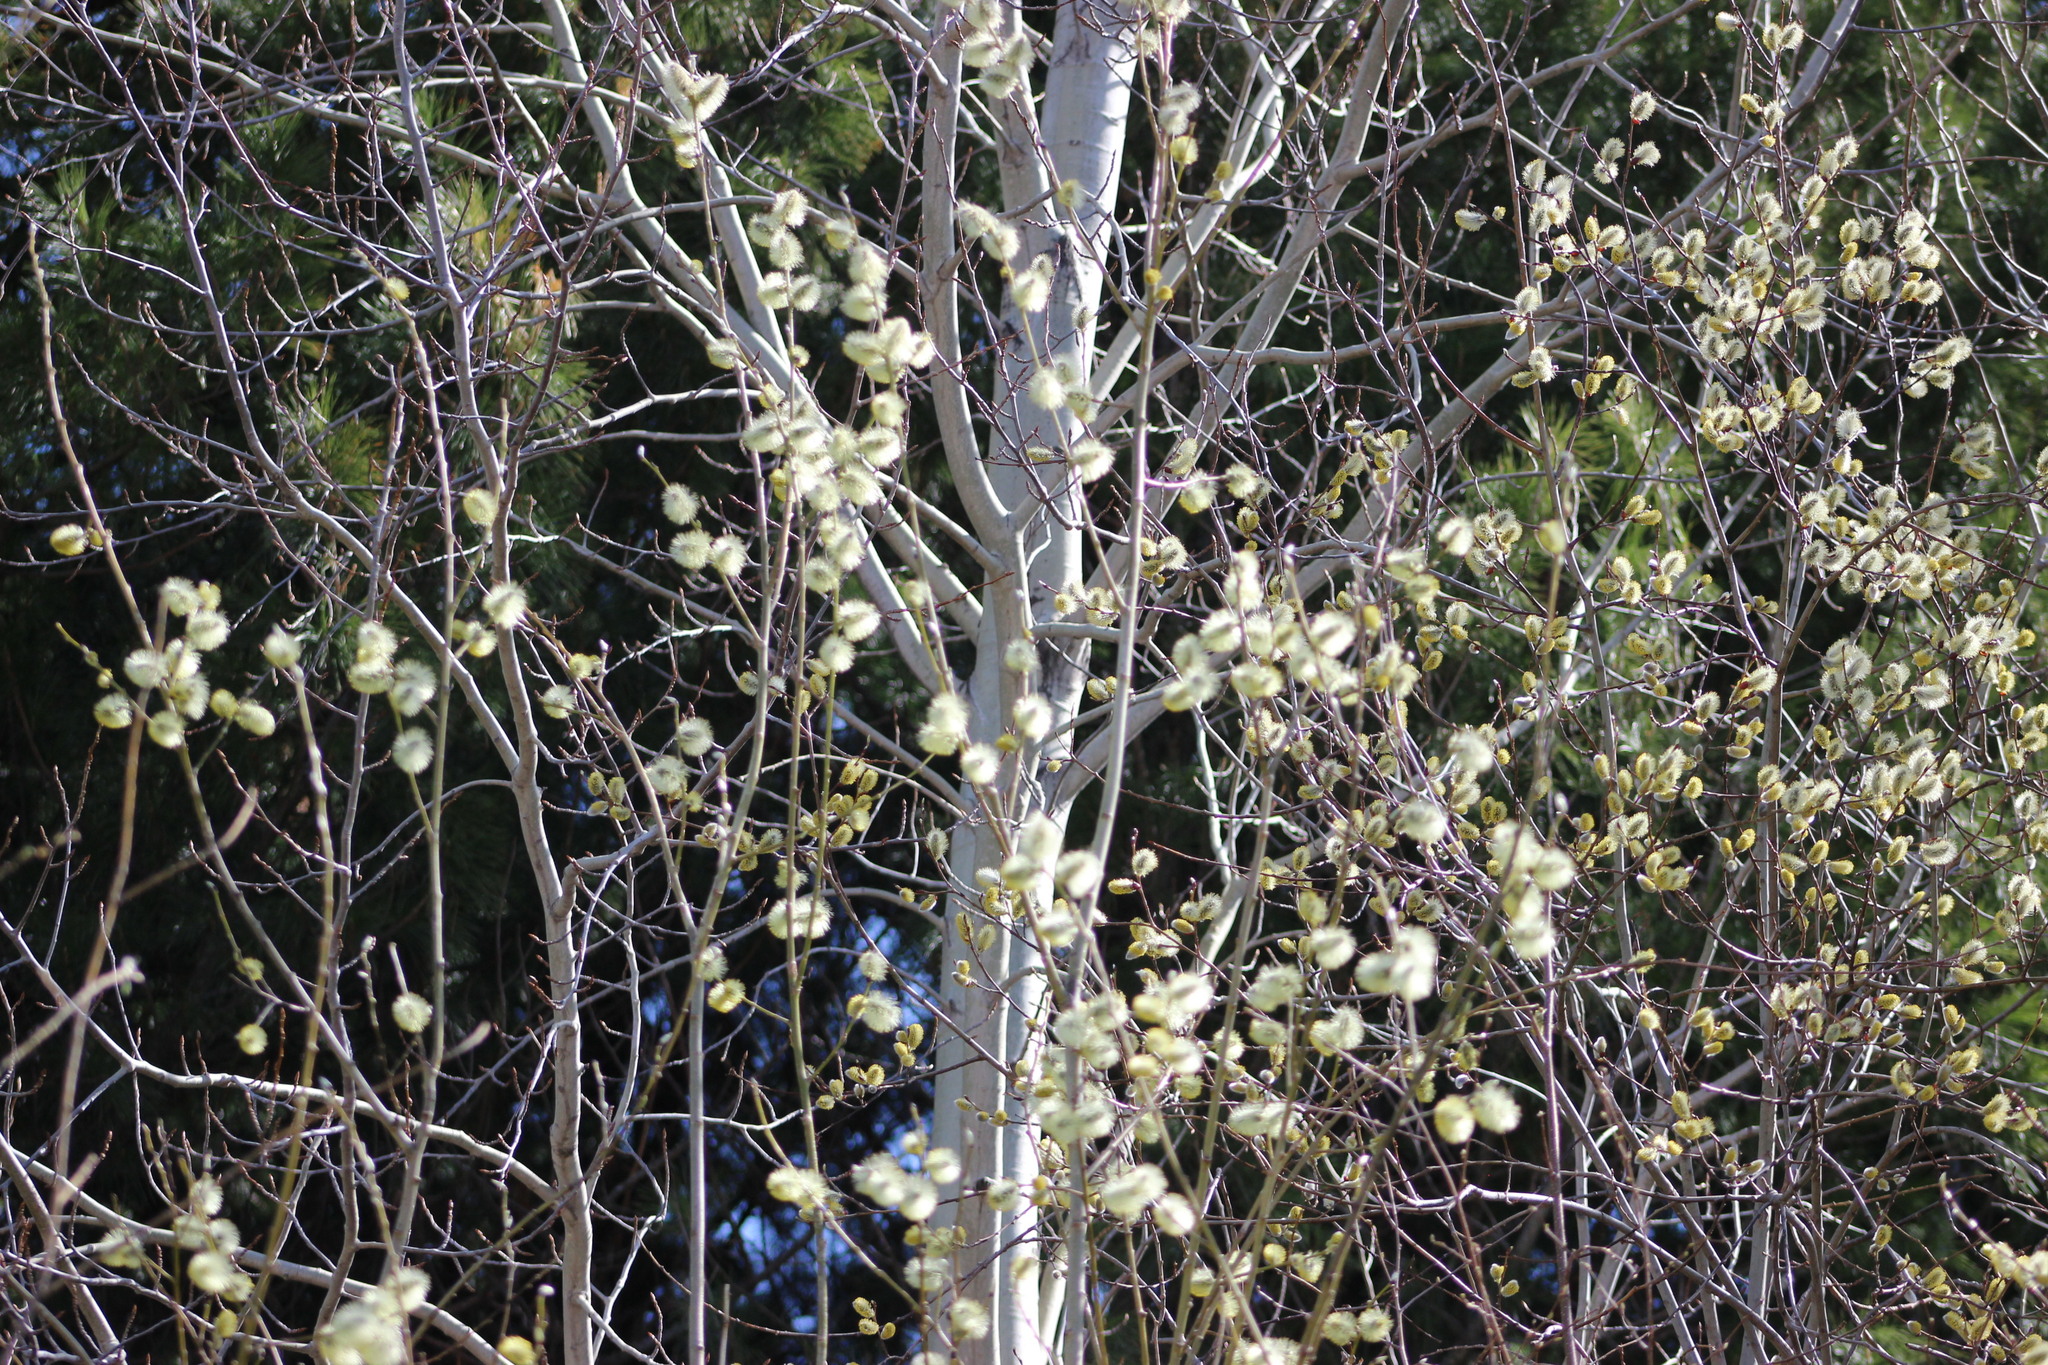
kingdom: Plantae
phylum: Tracheophyta
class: Magnoliopsida
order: Malpighiales
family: Salicaceae
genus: Salix
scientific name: Salix caprea
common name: Goat willow
